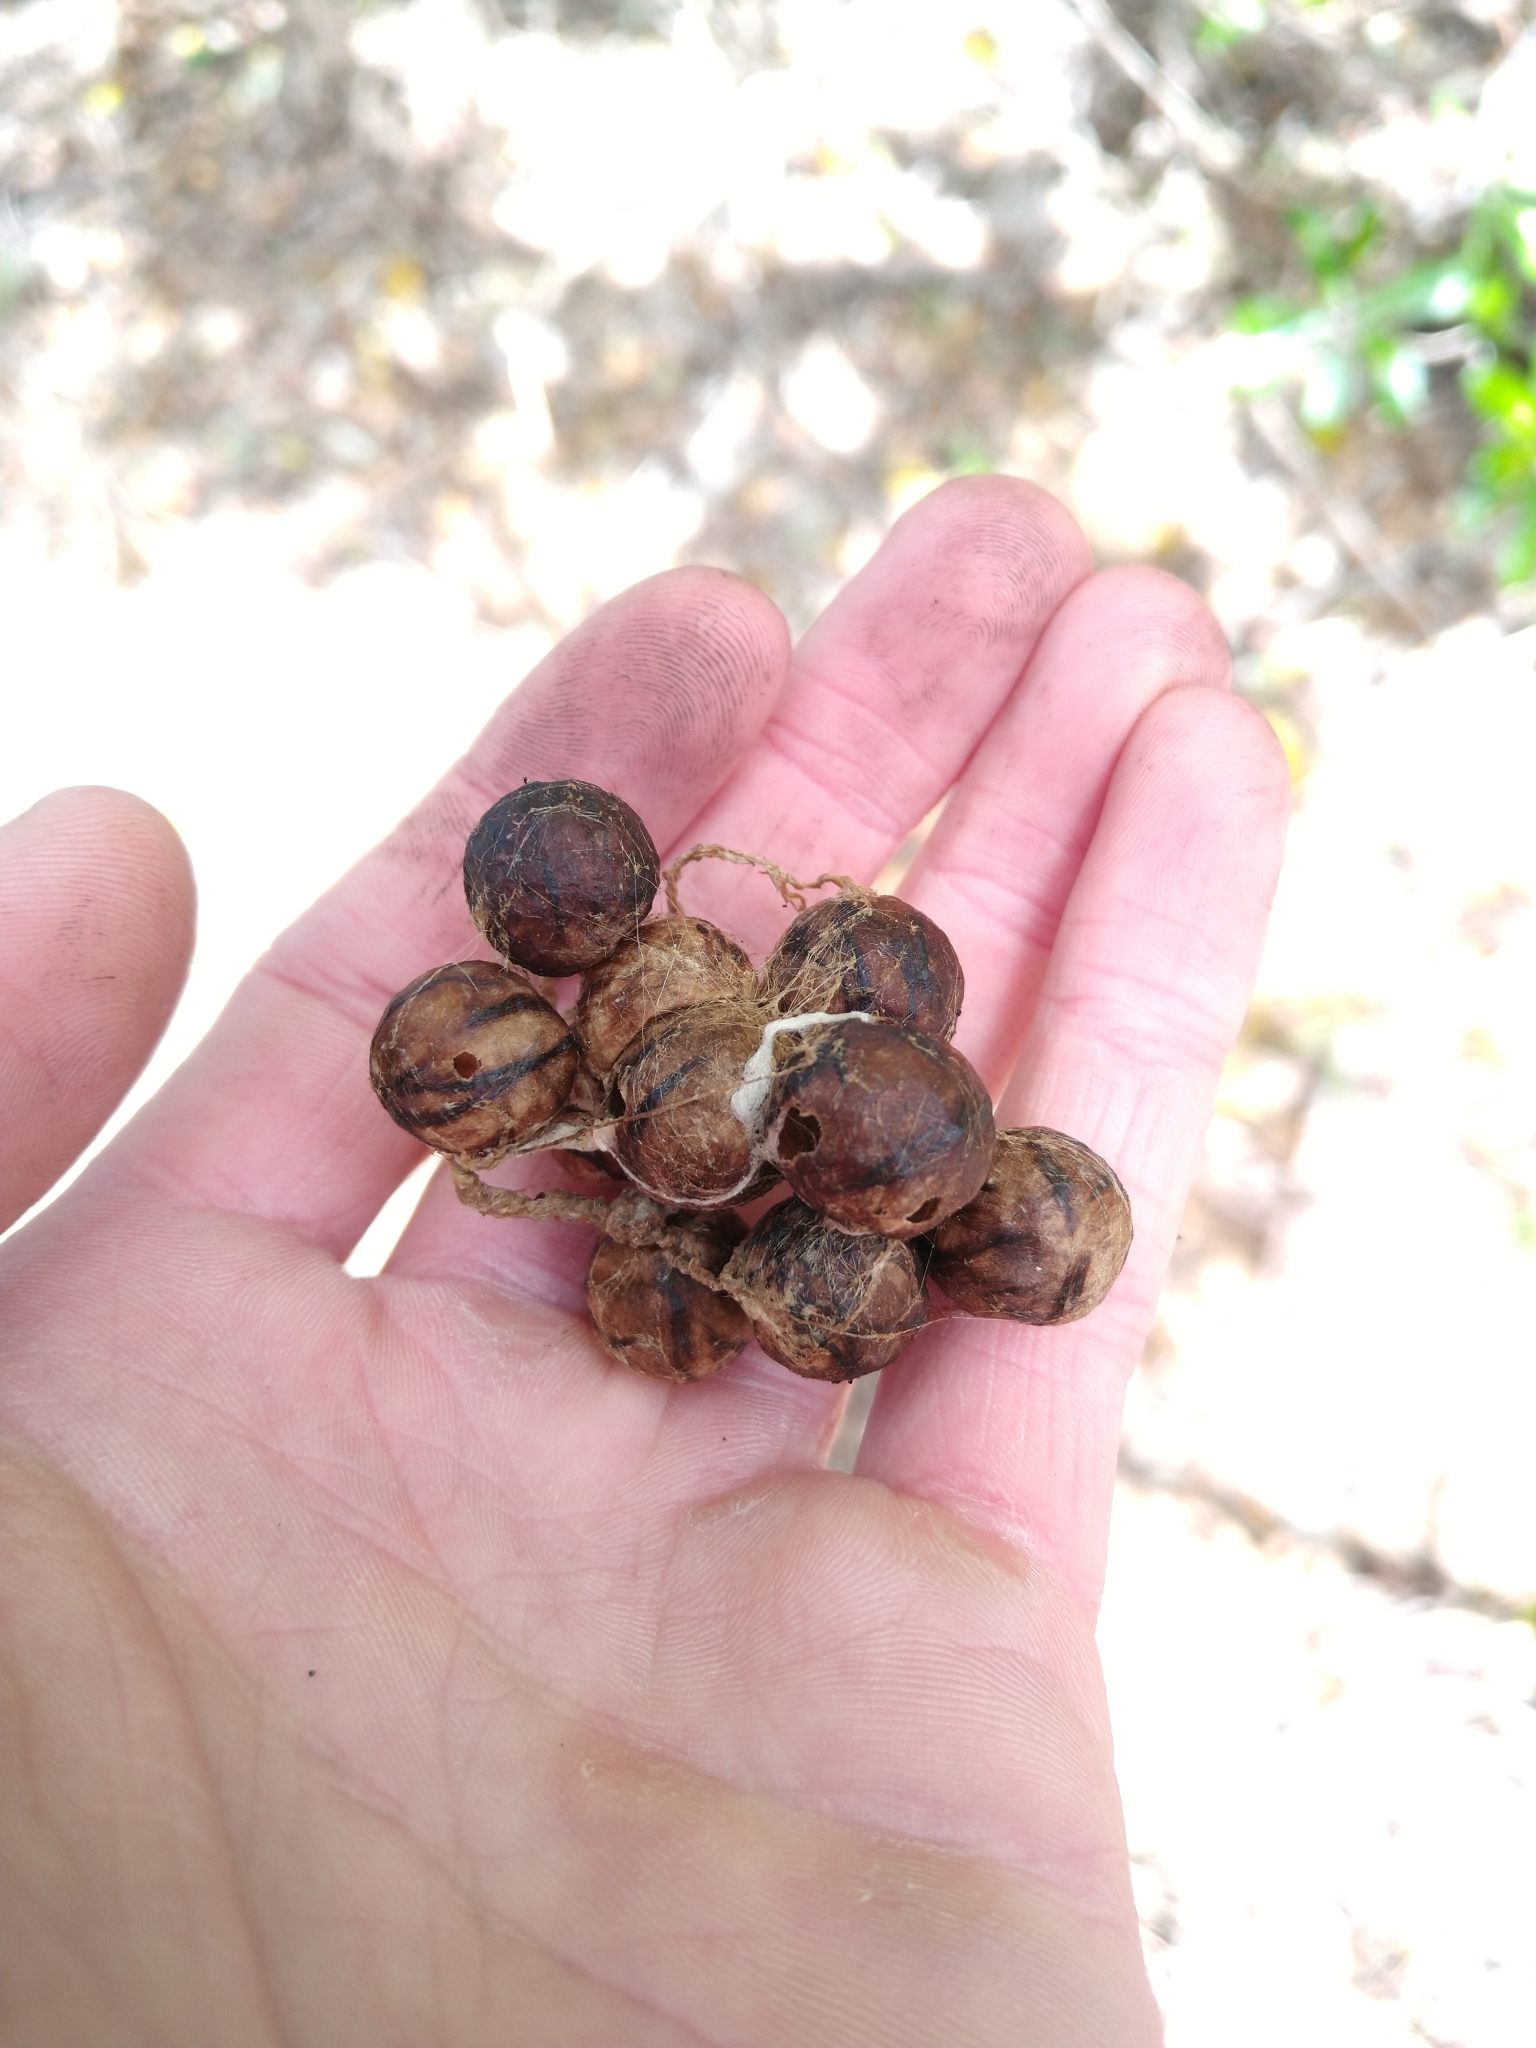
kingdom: Animalia
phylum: Arthropoda
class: Arachnida
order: Araneae
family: Araneidae
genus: Celaenia
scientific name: Celaenia excavata
